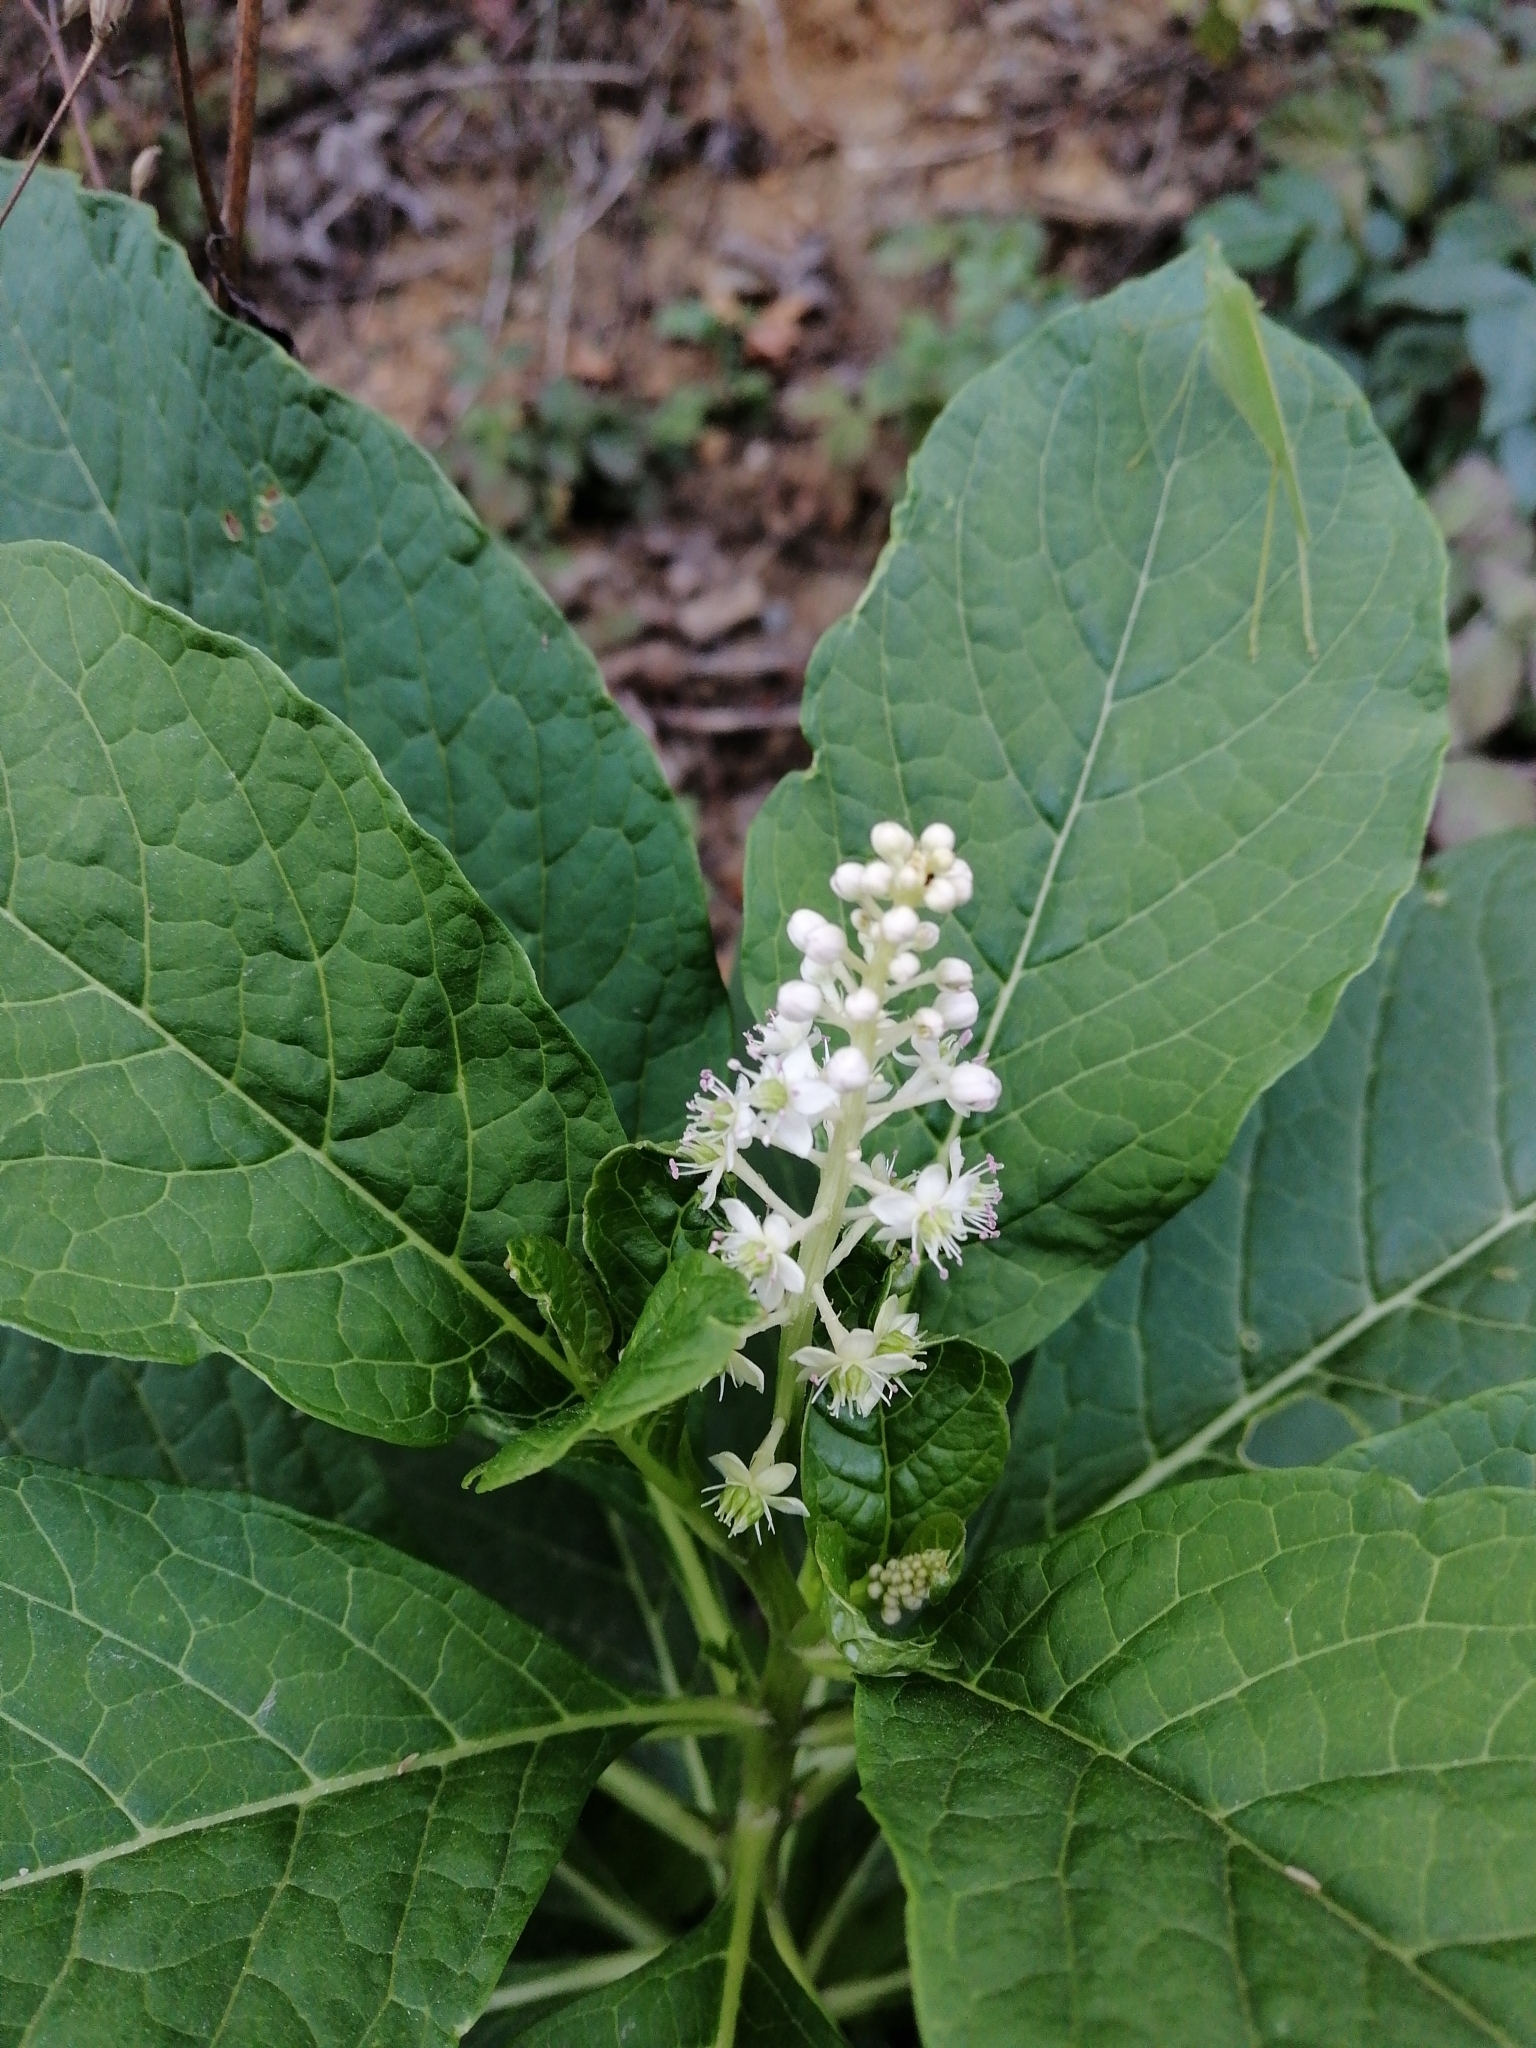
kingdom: Plantae
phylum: Tracheophyta
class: Magnoliopsida
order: Caryophyllales
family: Phytolaccaceae
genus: Phytolacca
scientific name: Phytolacca acinosa
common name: Indian pokeweed
